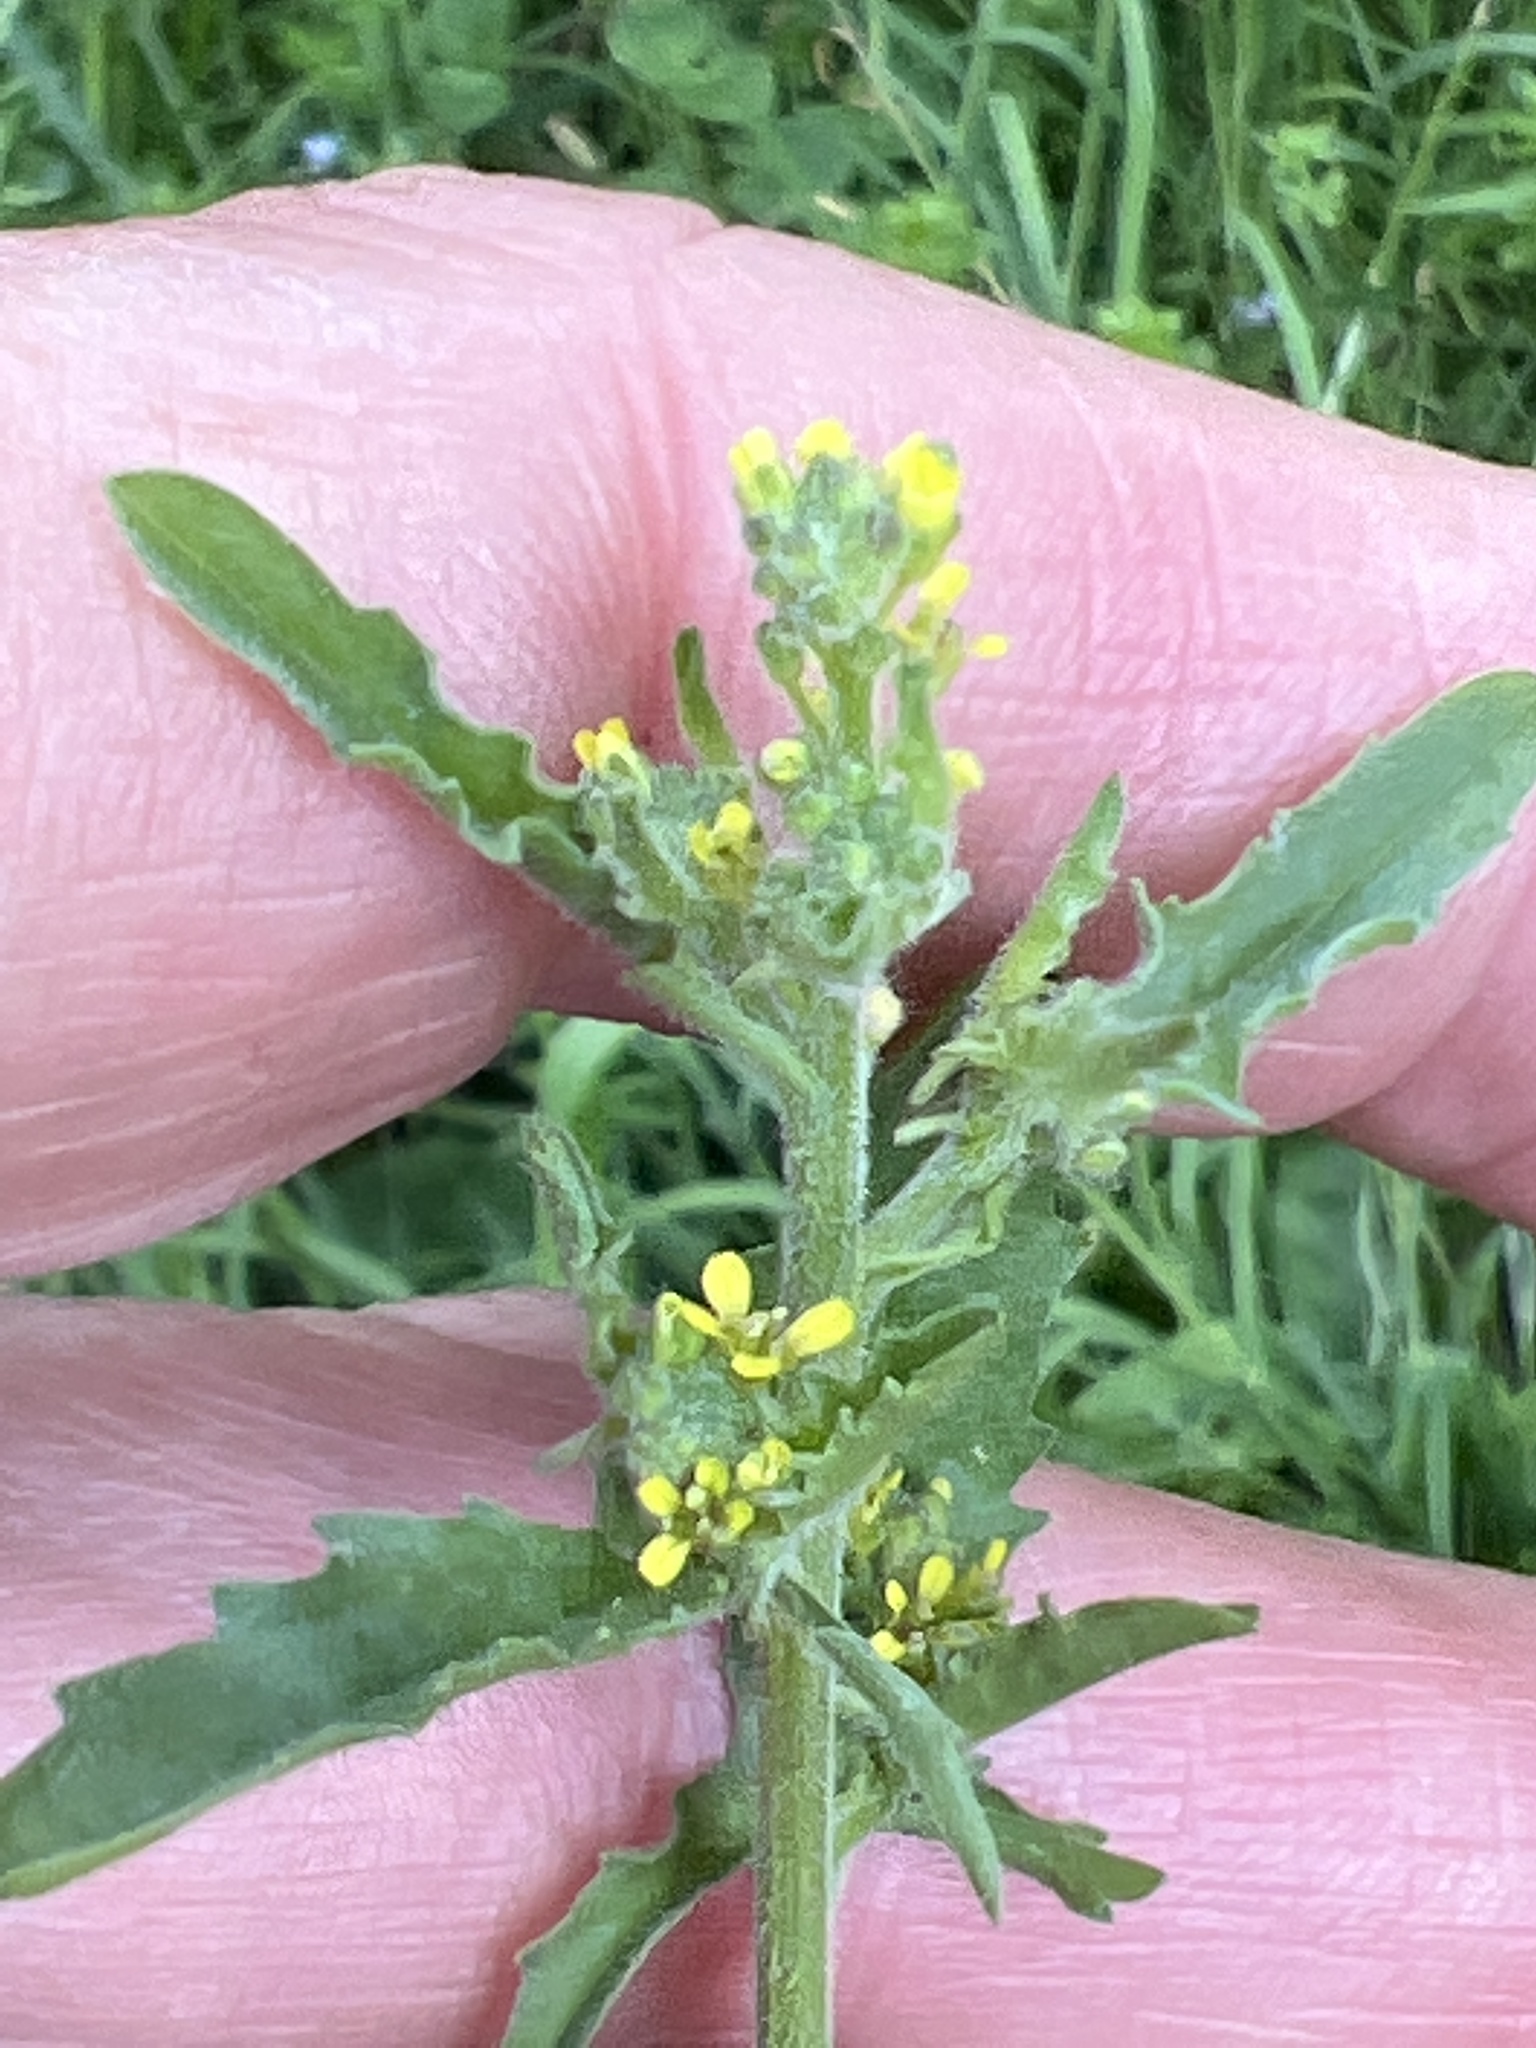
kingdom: Plantae
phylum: Tracheophyta
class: Magnoliopsida
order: Brassicales
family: Brassicaceae
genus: Sisymbrium
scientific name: Sisymbrium officinale
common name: Hedge mustard
